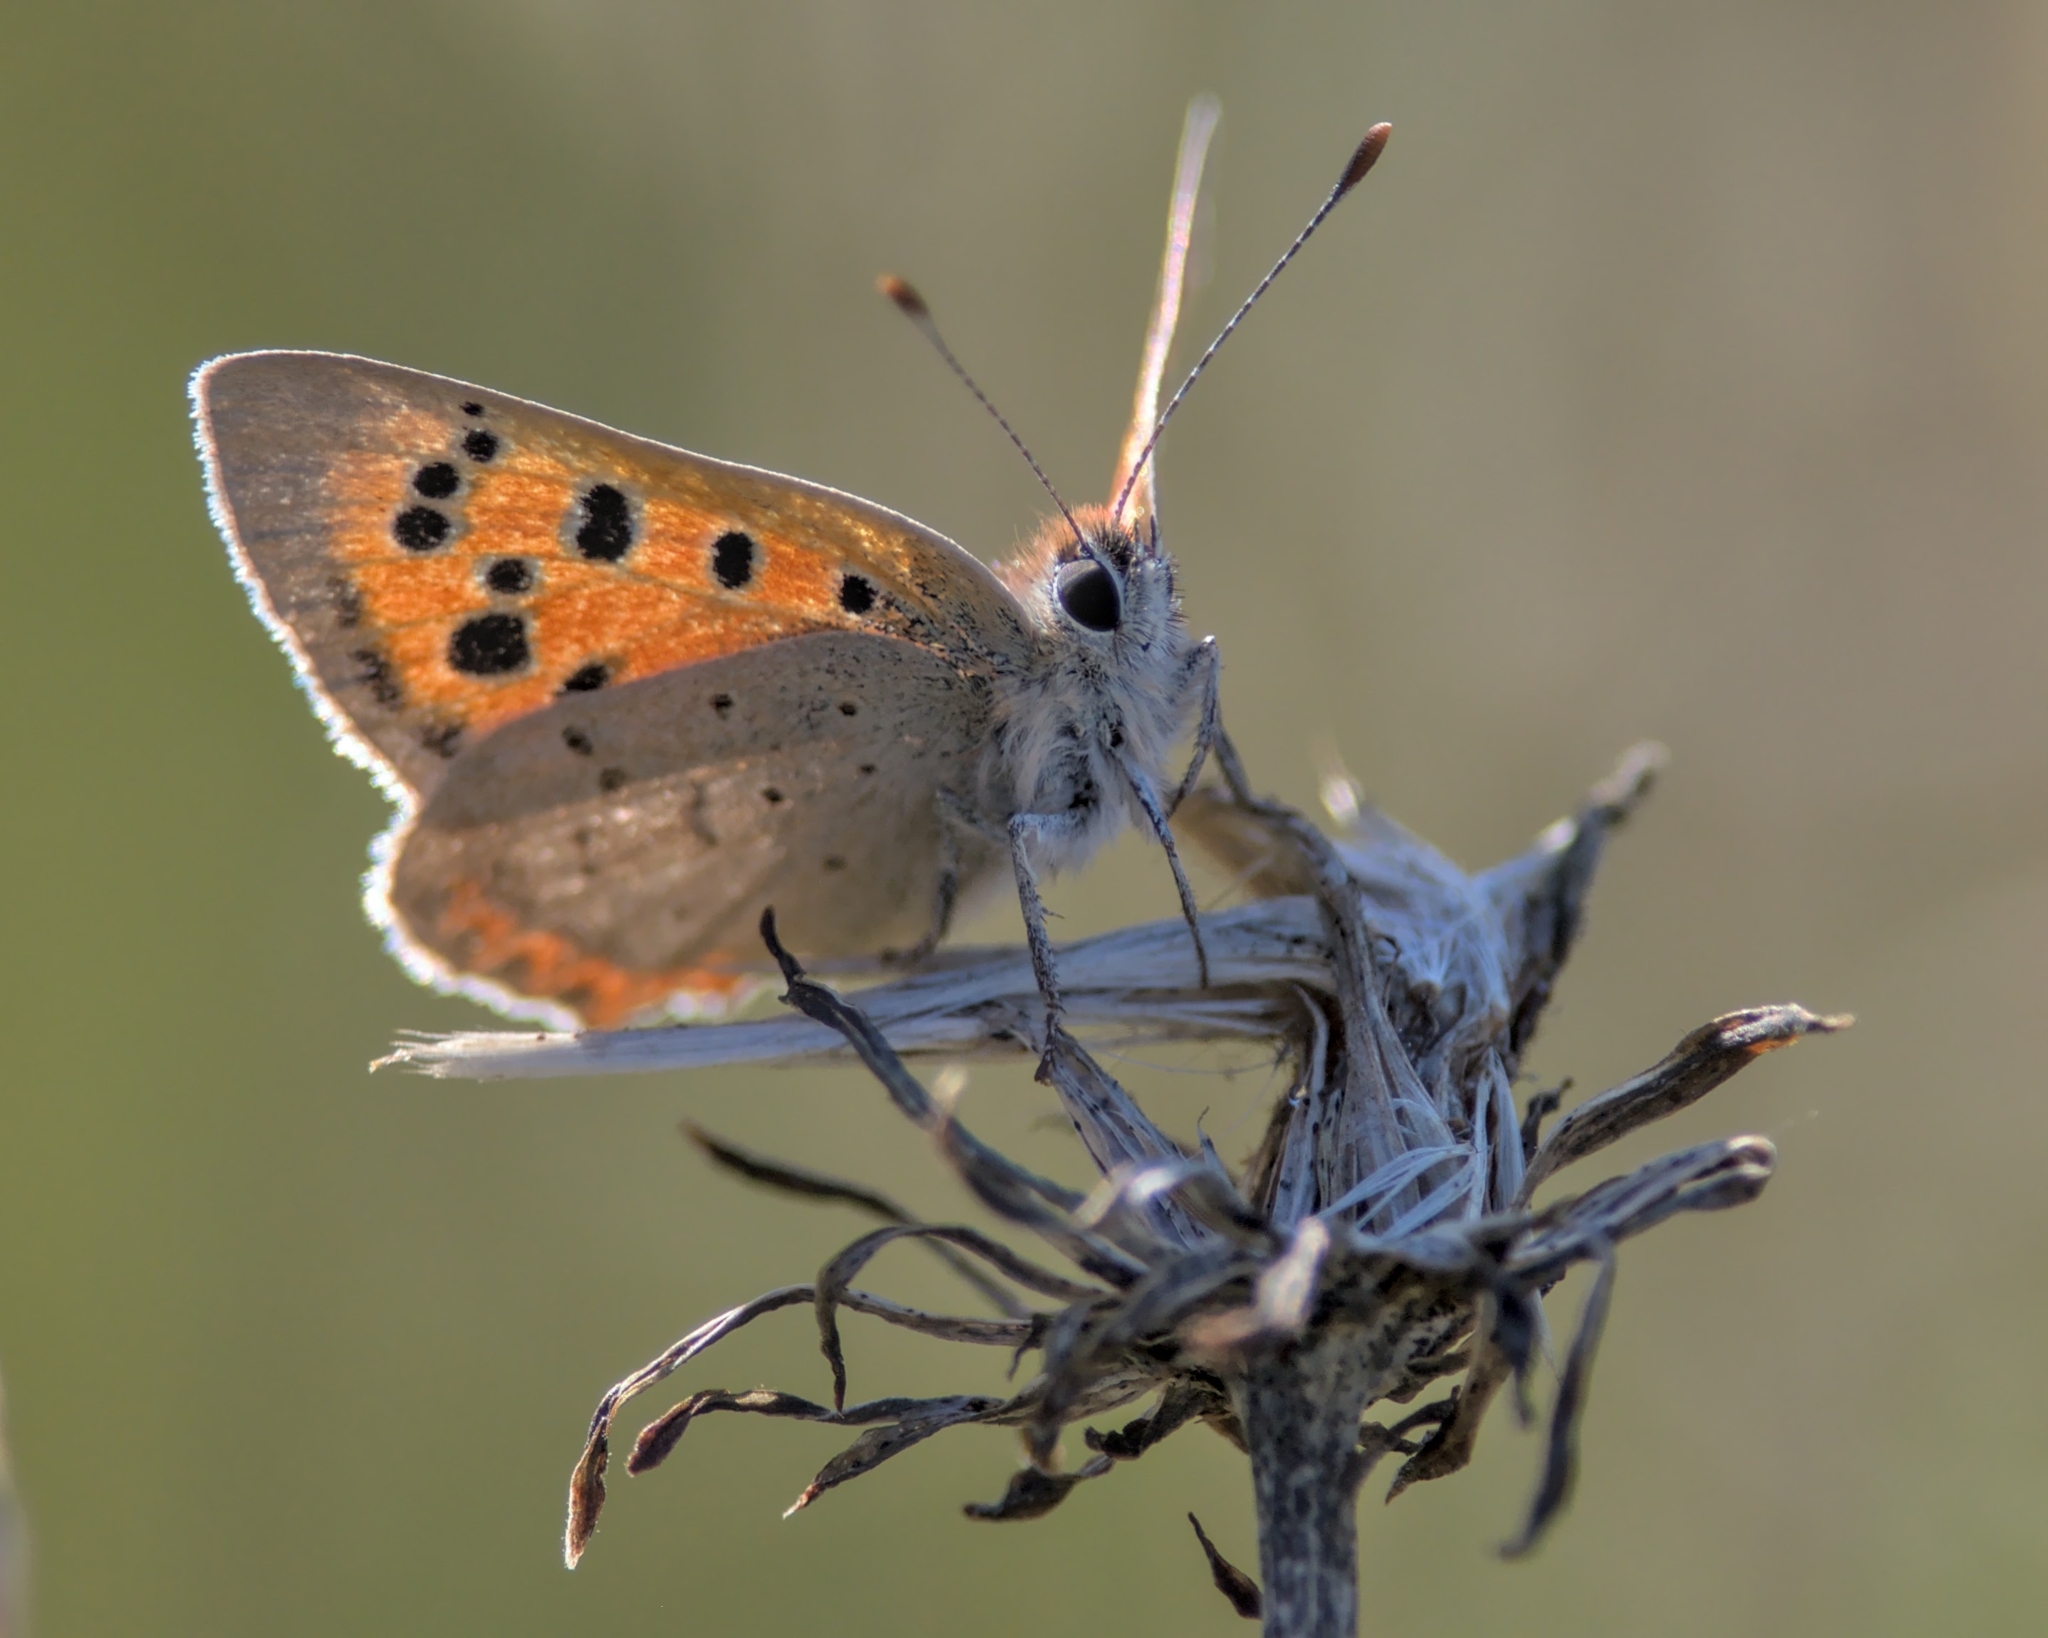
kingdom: Animalia
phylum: Arthropoda
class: Insecta
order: Lepidoptera
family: Lycaenidae
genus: Lycaena
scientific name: Lycaena phlaeas
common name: Small copper
